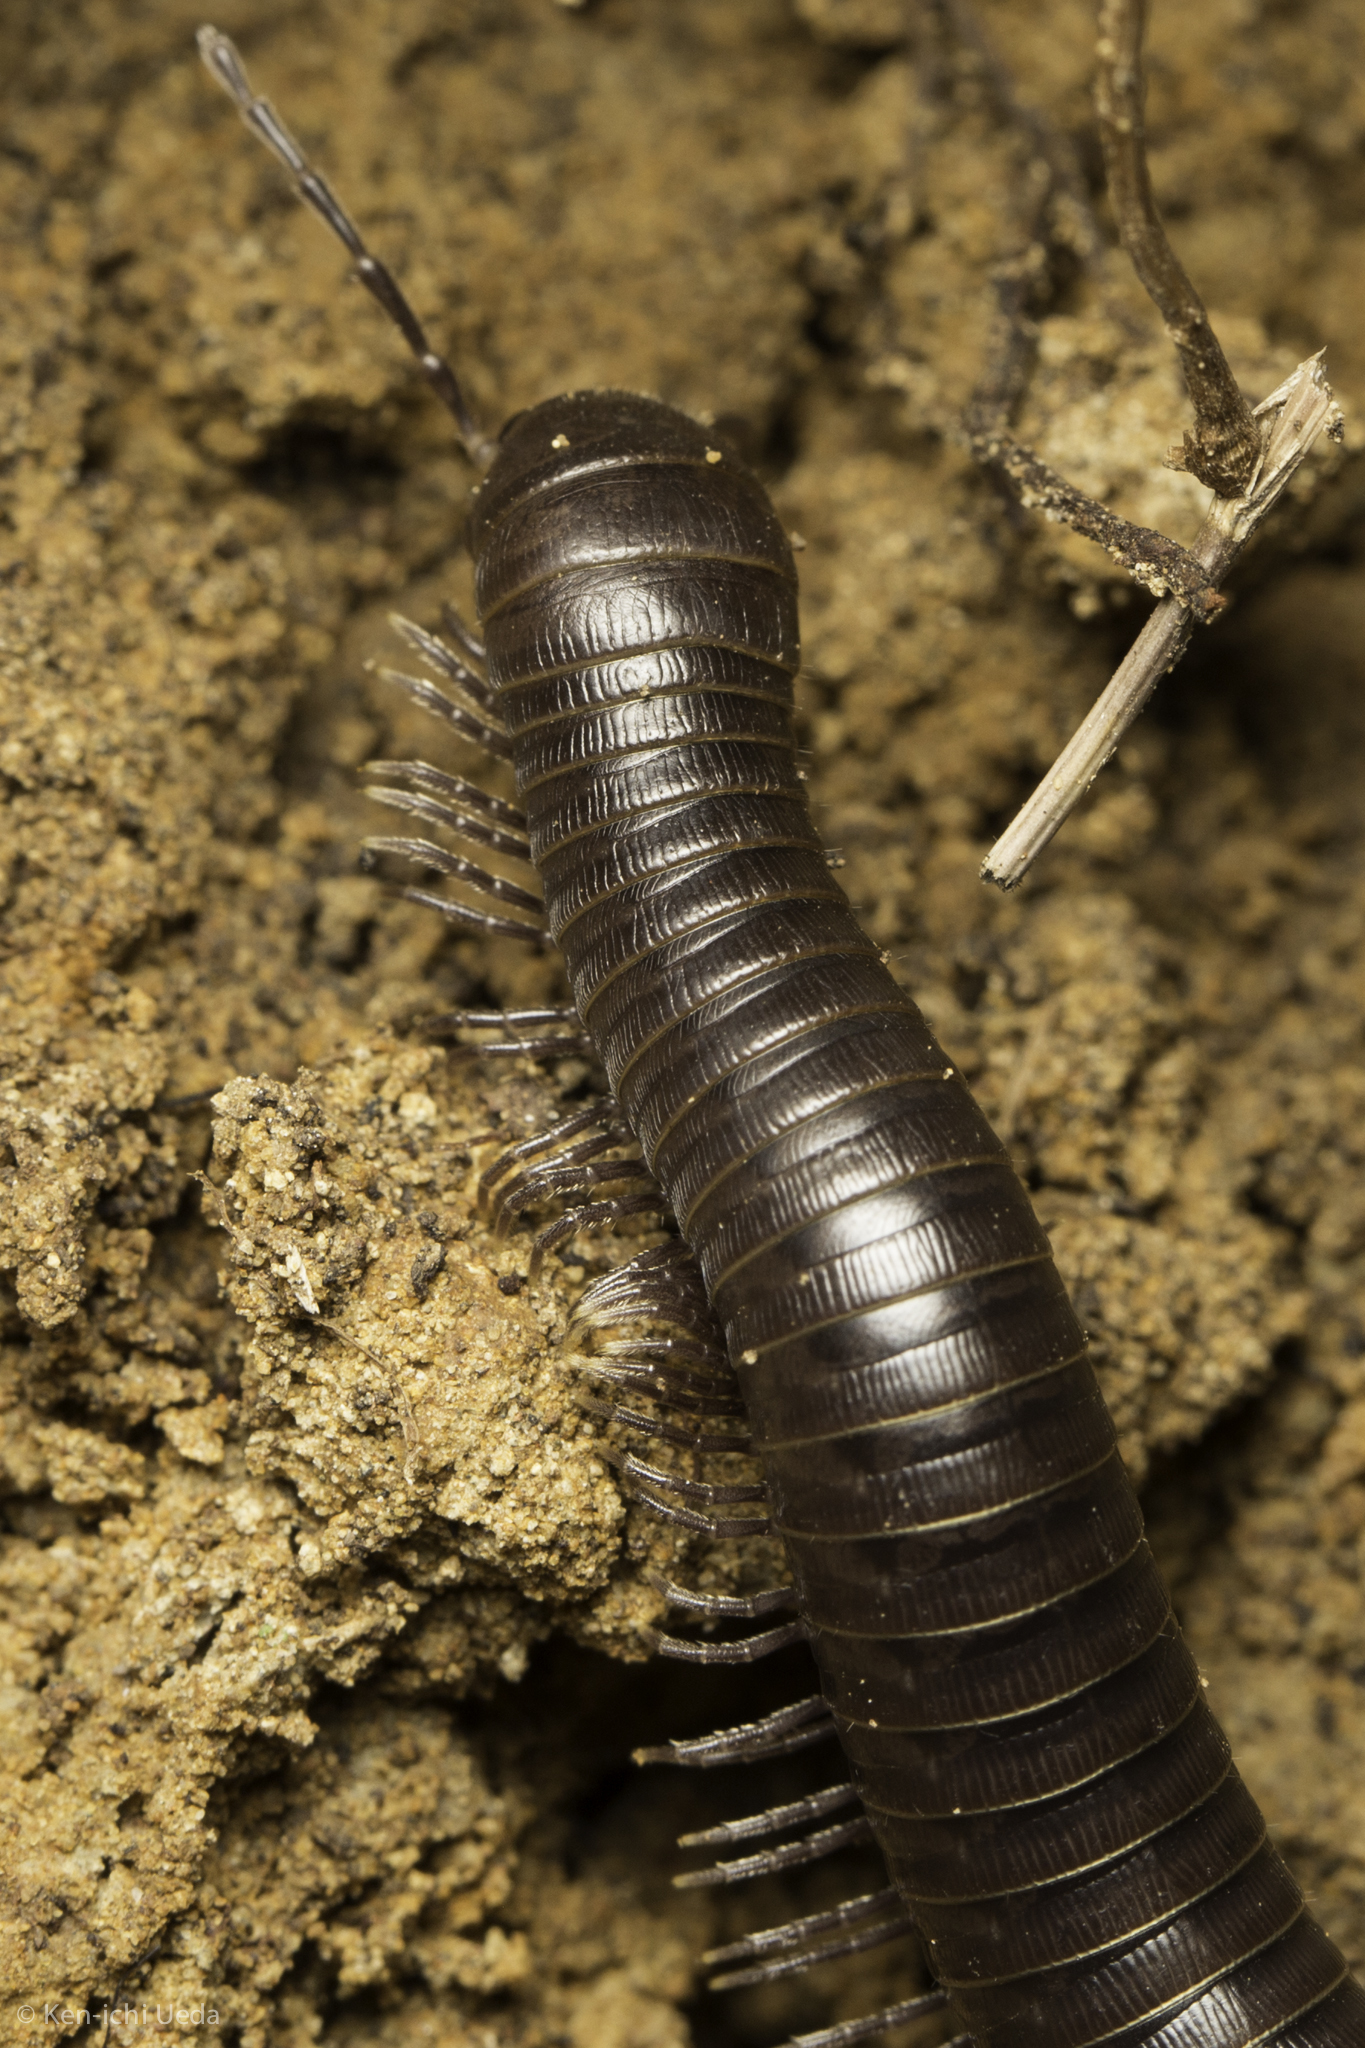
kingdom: Animalia
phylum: Arthropoda
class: Diplopoda
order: Julida
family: Paeromopodidae
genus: Paeromopus
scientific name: Paeromopus angusticeps
